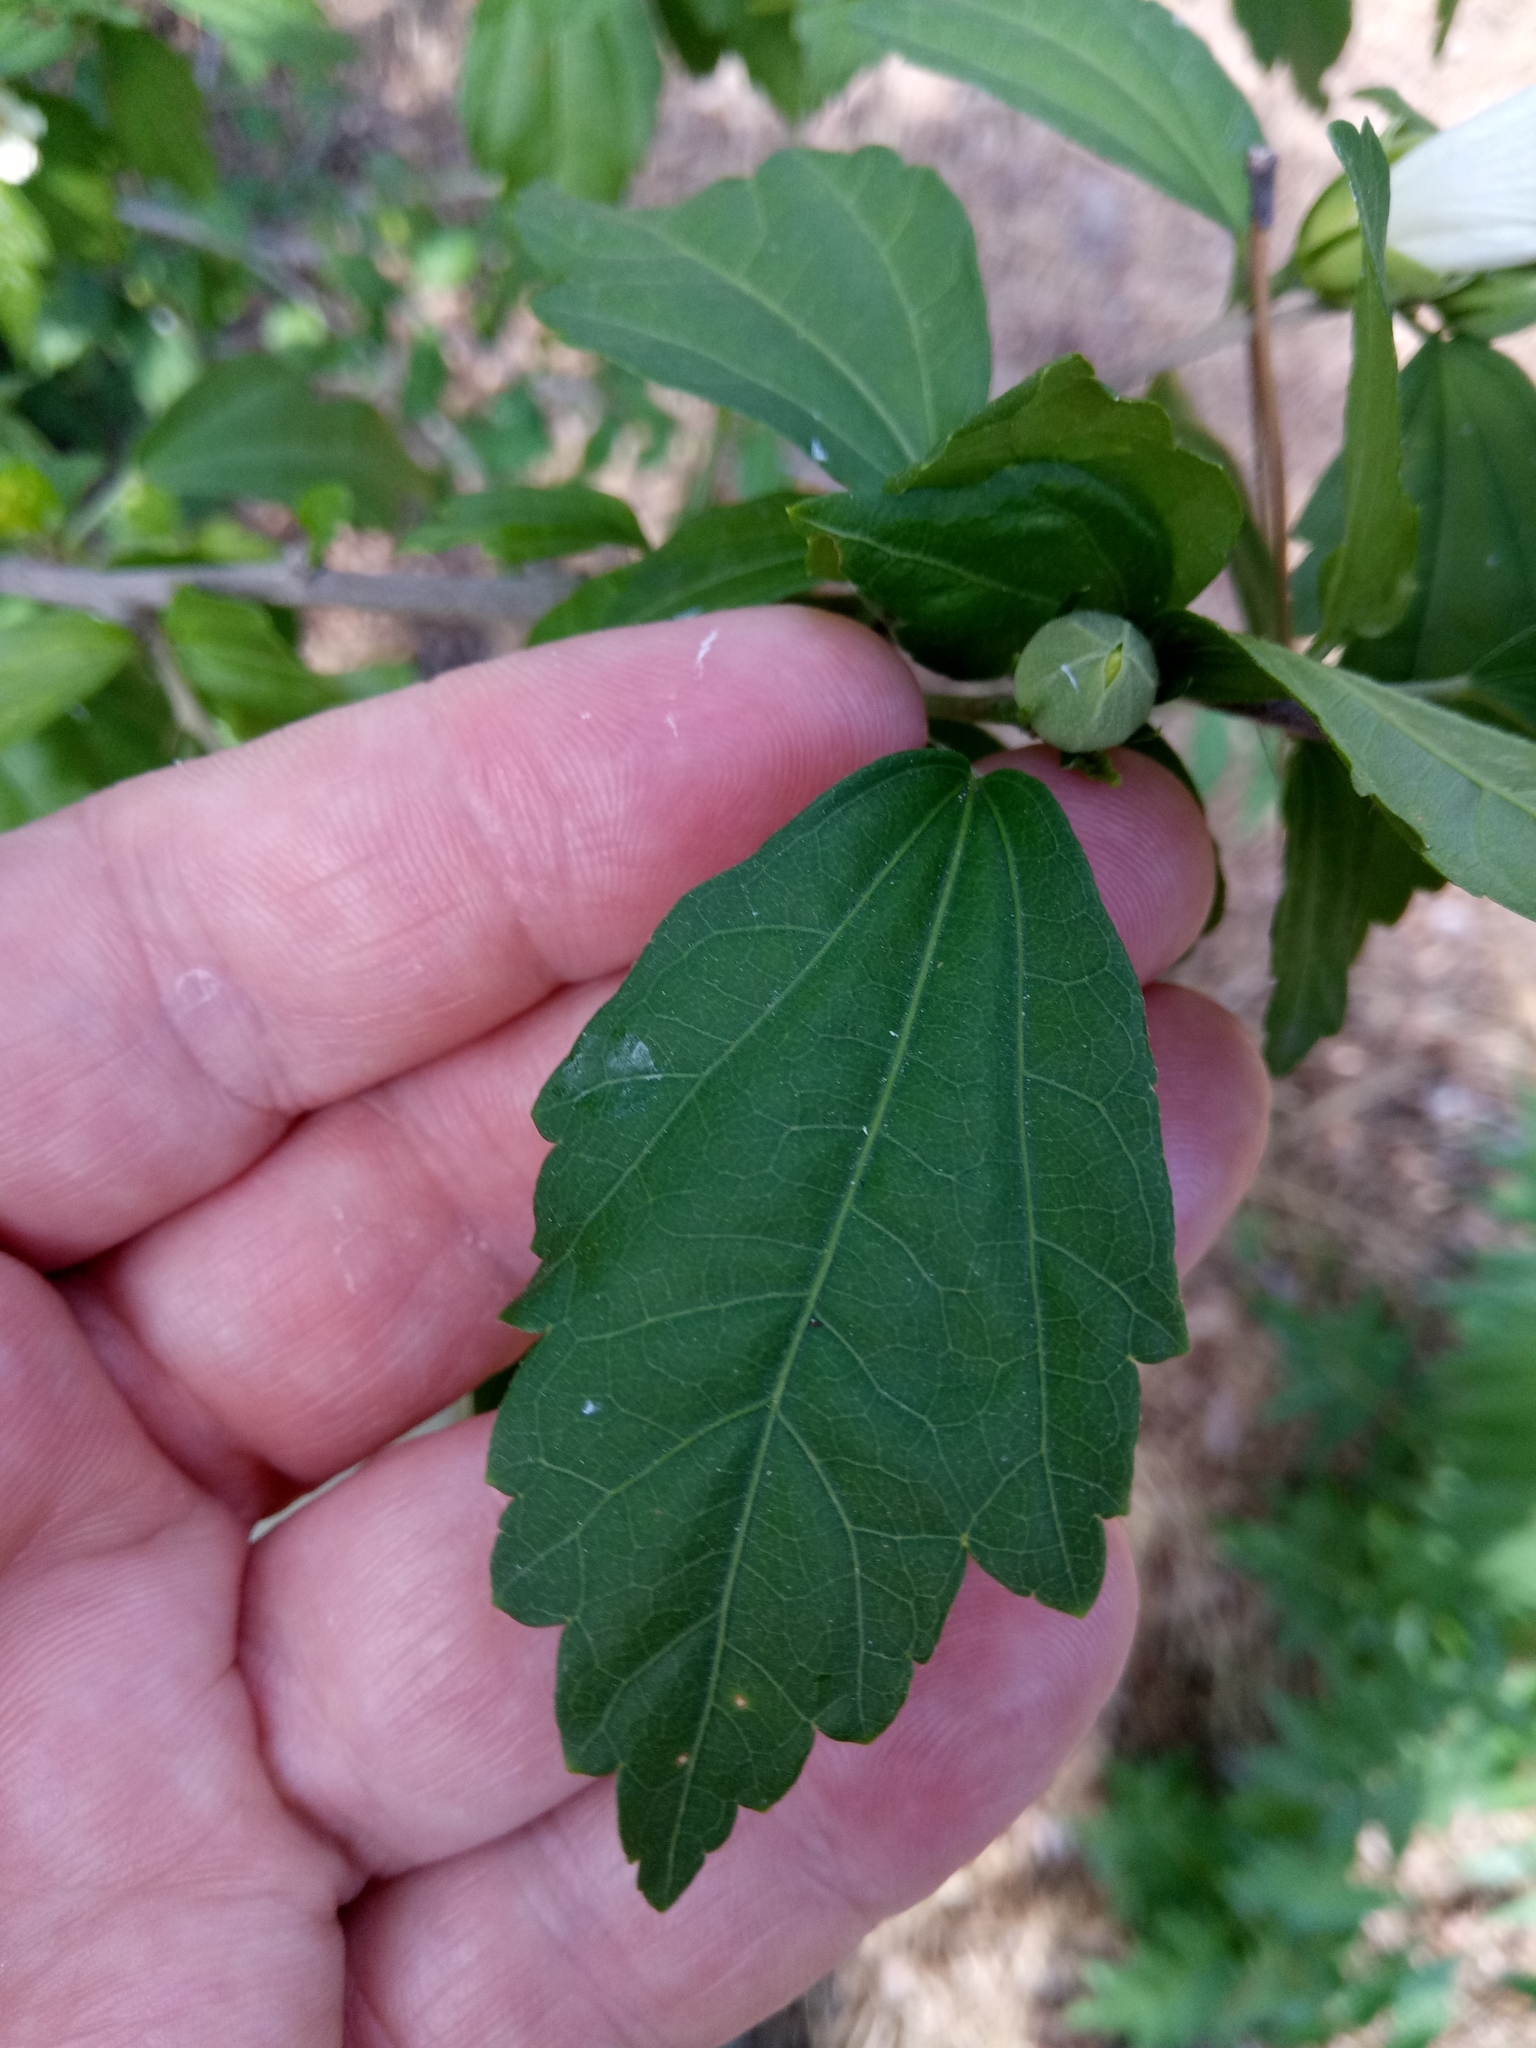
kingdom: Plantae
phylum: Tracheophyta
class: Magnoliopsida
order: Malvales
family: Malvaceae
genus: Hibiscus
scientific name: Hibiscus syriacus
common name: Syrian ketmia
